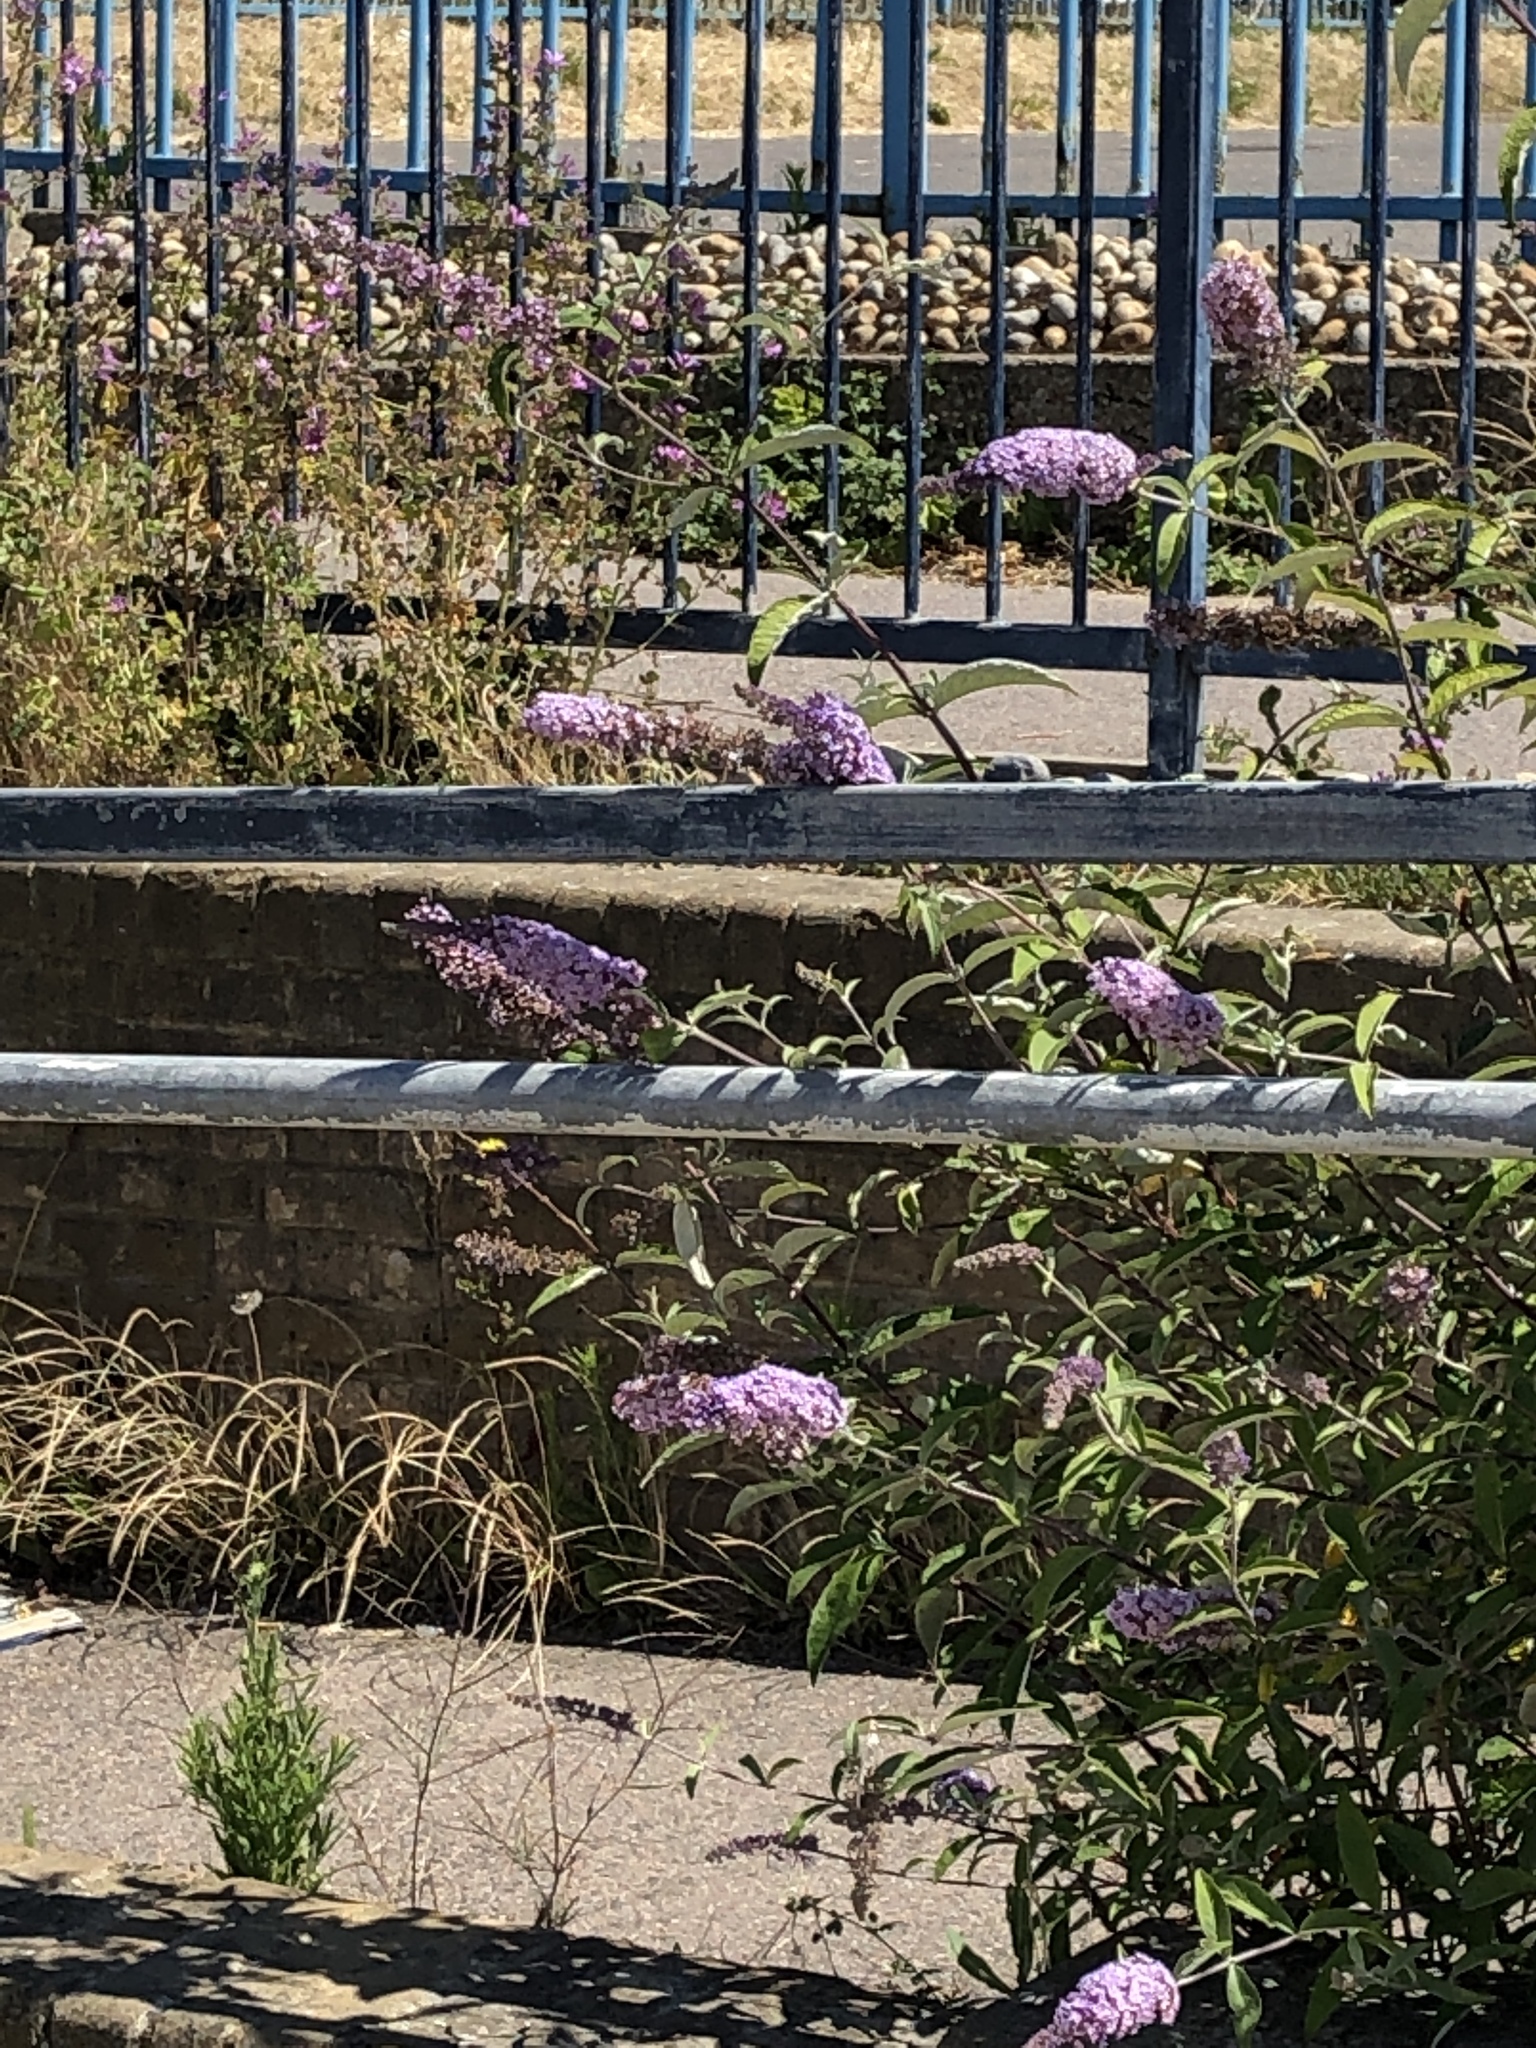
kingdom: Plantae
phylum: Tracheophyta
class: Magnoliopsida
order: Lamiales
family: Scrophulariaceae
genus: Buddleja
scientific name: Buddleja davidii
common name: Butterfly-bush
